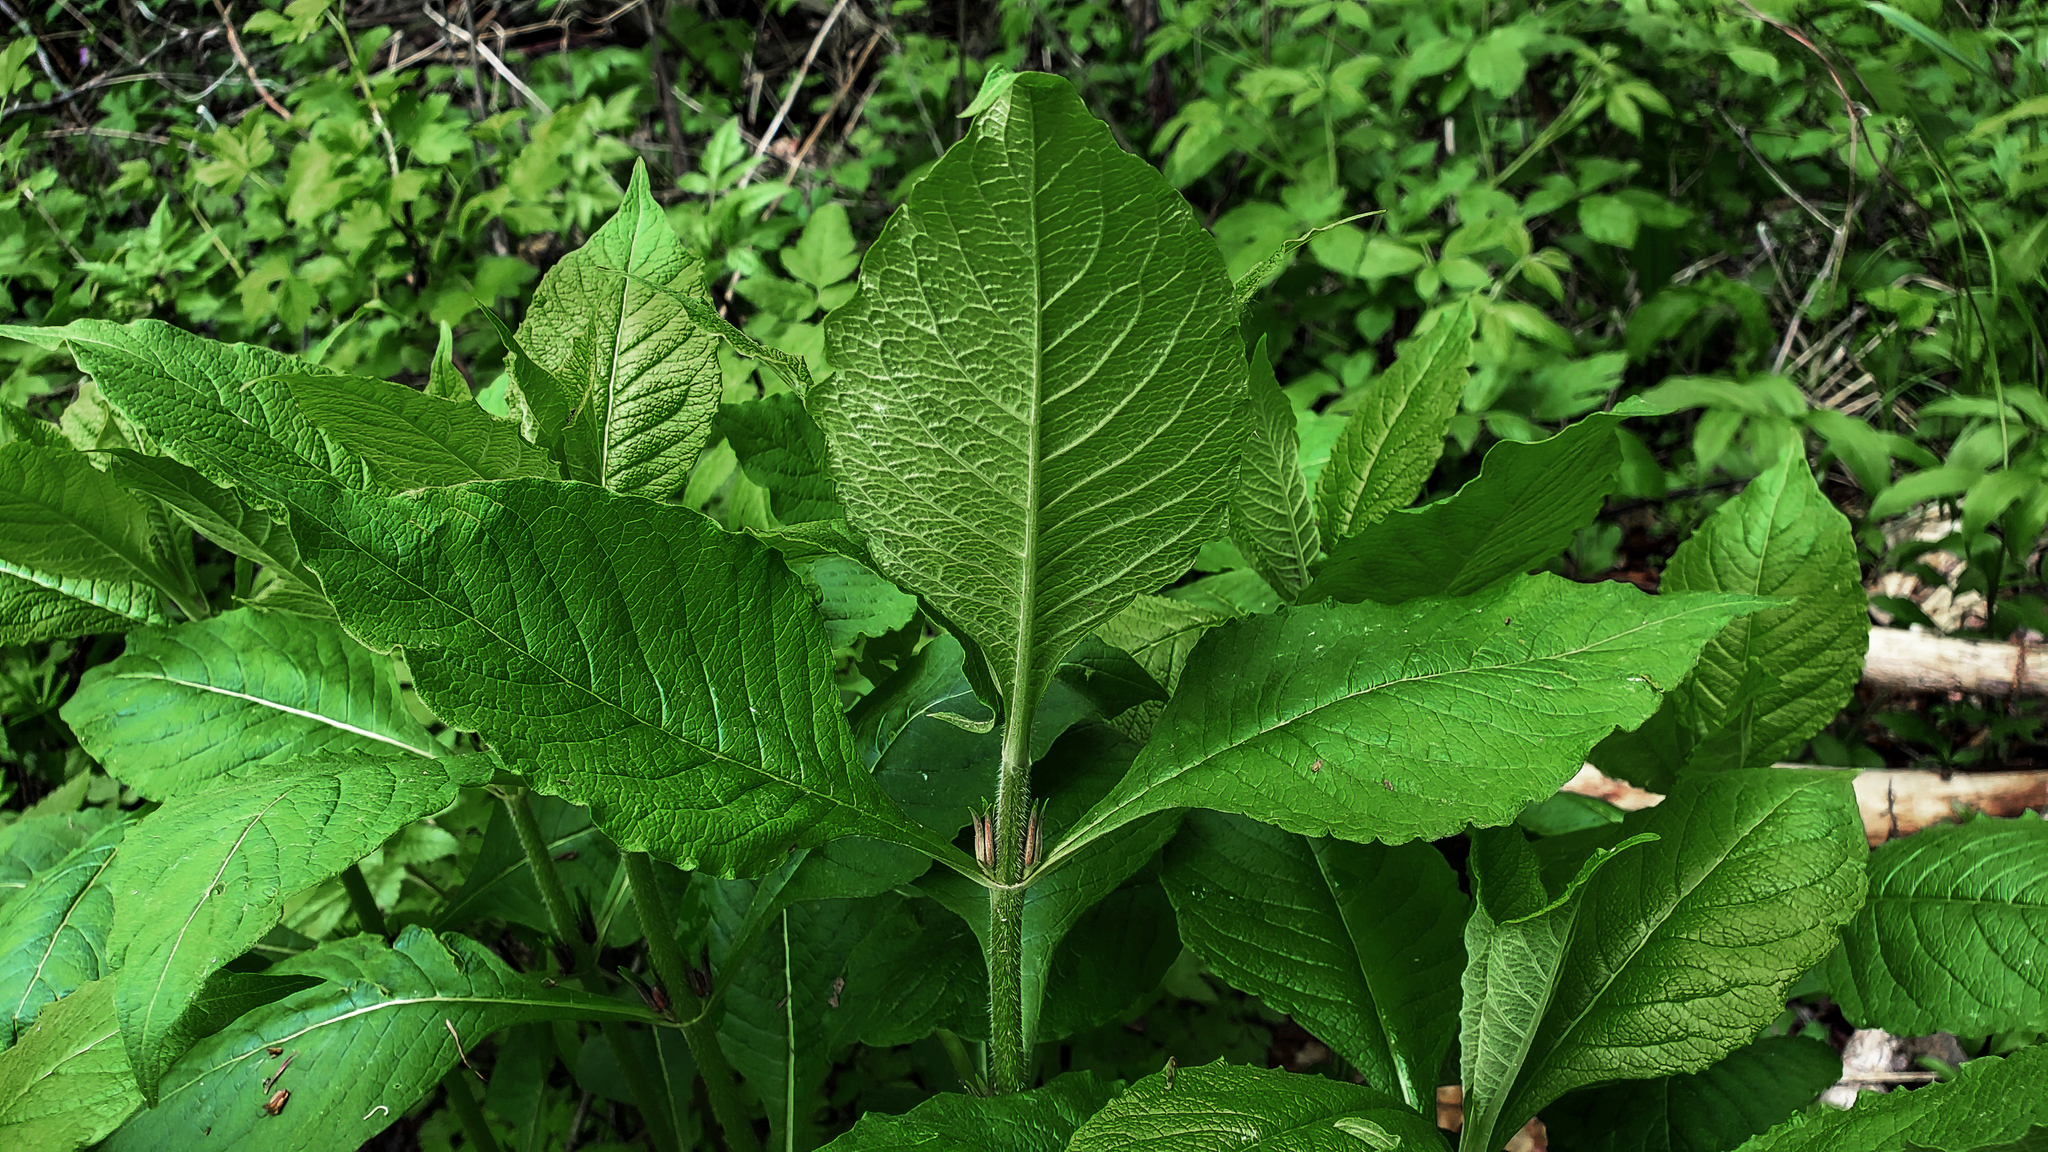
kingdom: Plantae
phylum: Tracheophyta
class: Magnoliopsida
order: Dipsacales
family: Caprifoliaceae
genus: Triosteum
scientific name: Triosteum aurantiacum
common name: Coffee tinker's-weed
